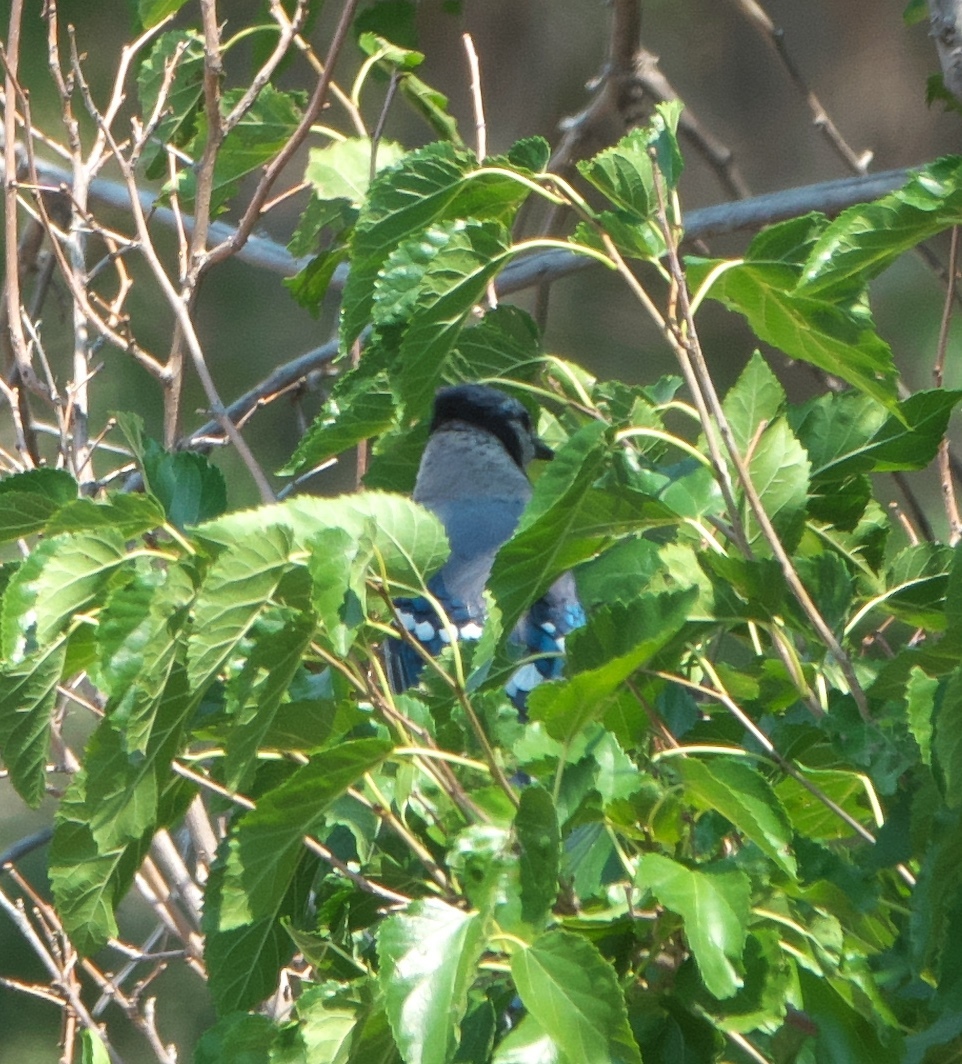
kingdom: Animalia
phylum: Chordata
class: Aves
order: Passeriformes
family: Corvidae
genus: Cyanocitta
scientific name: Cyanocitta cristata
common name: Blue jay
